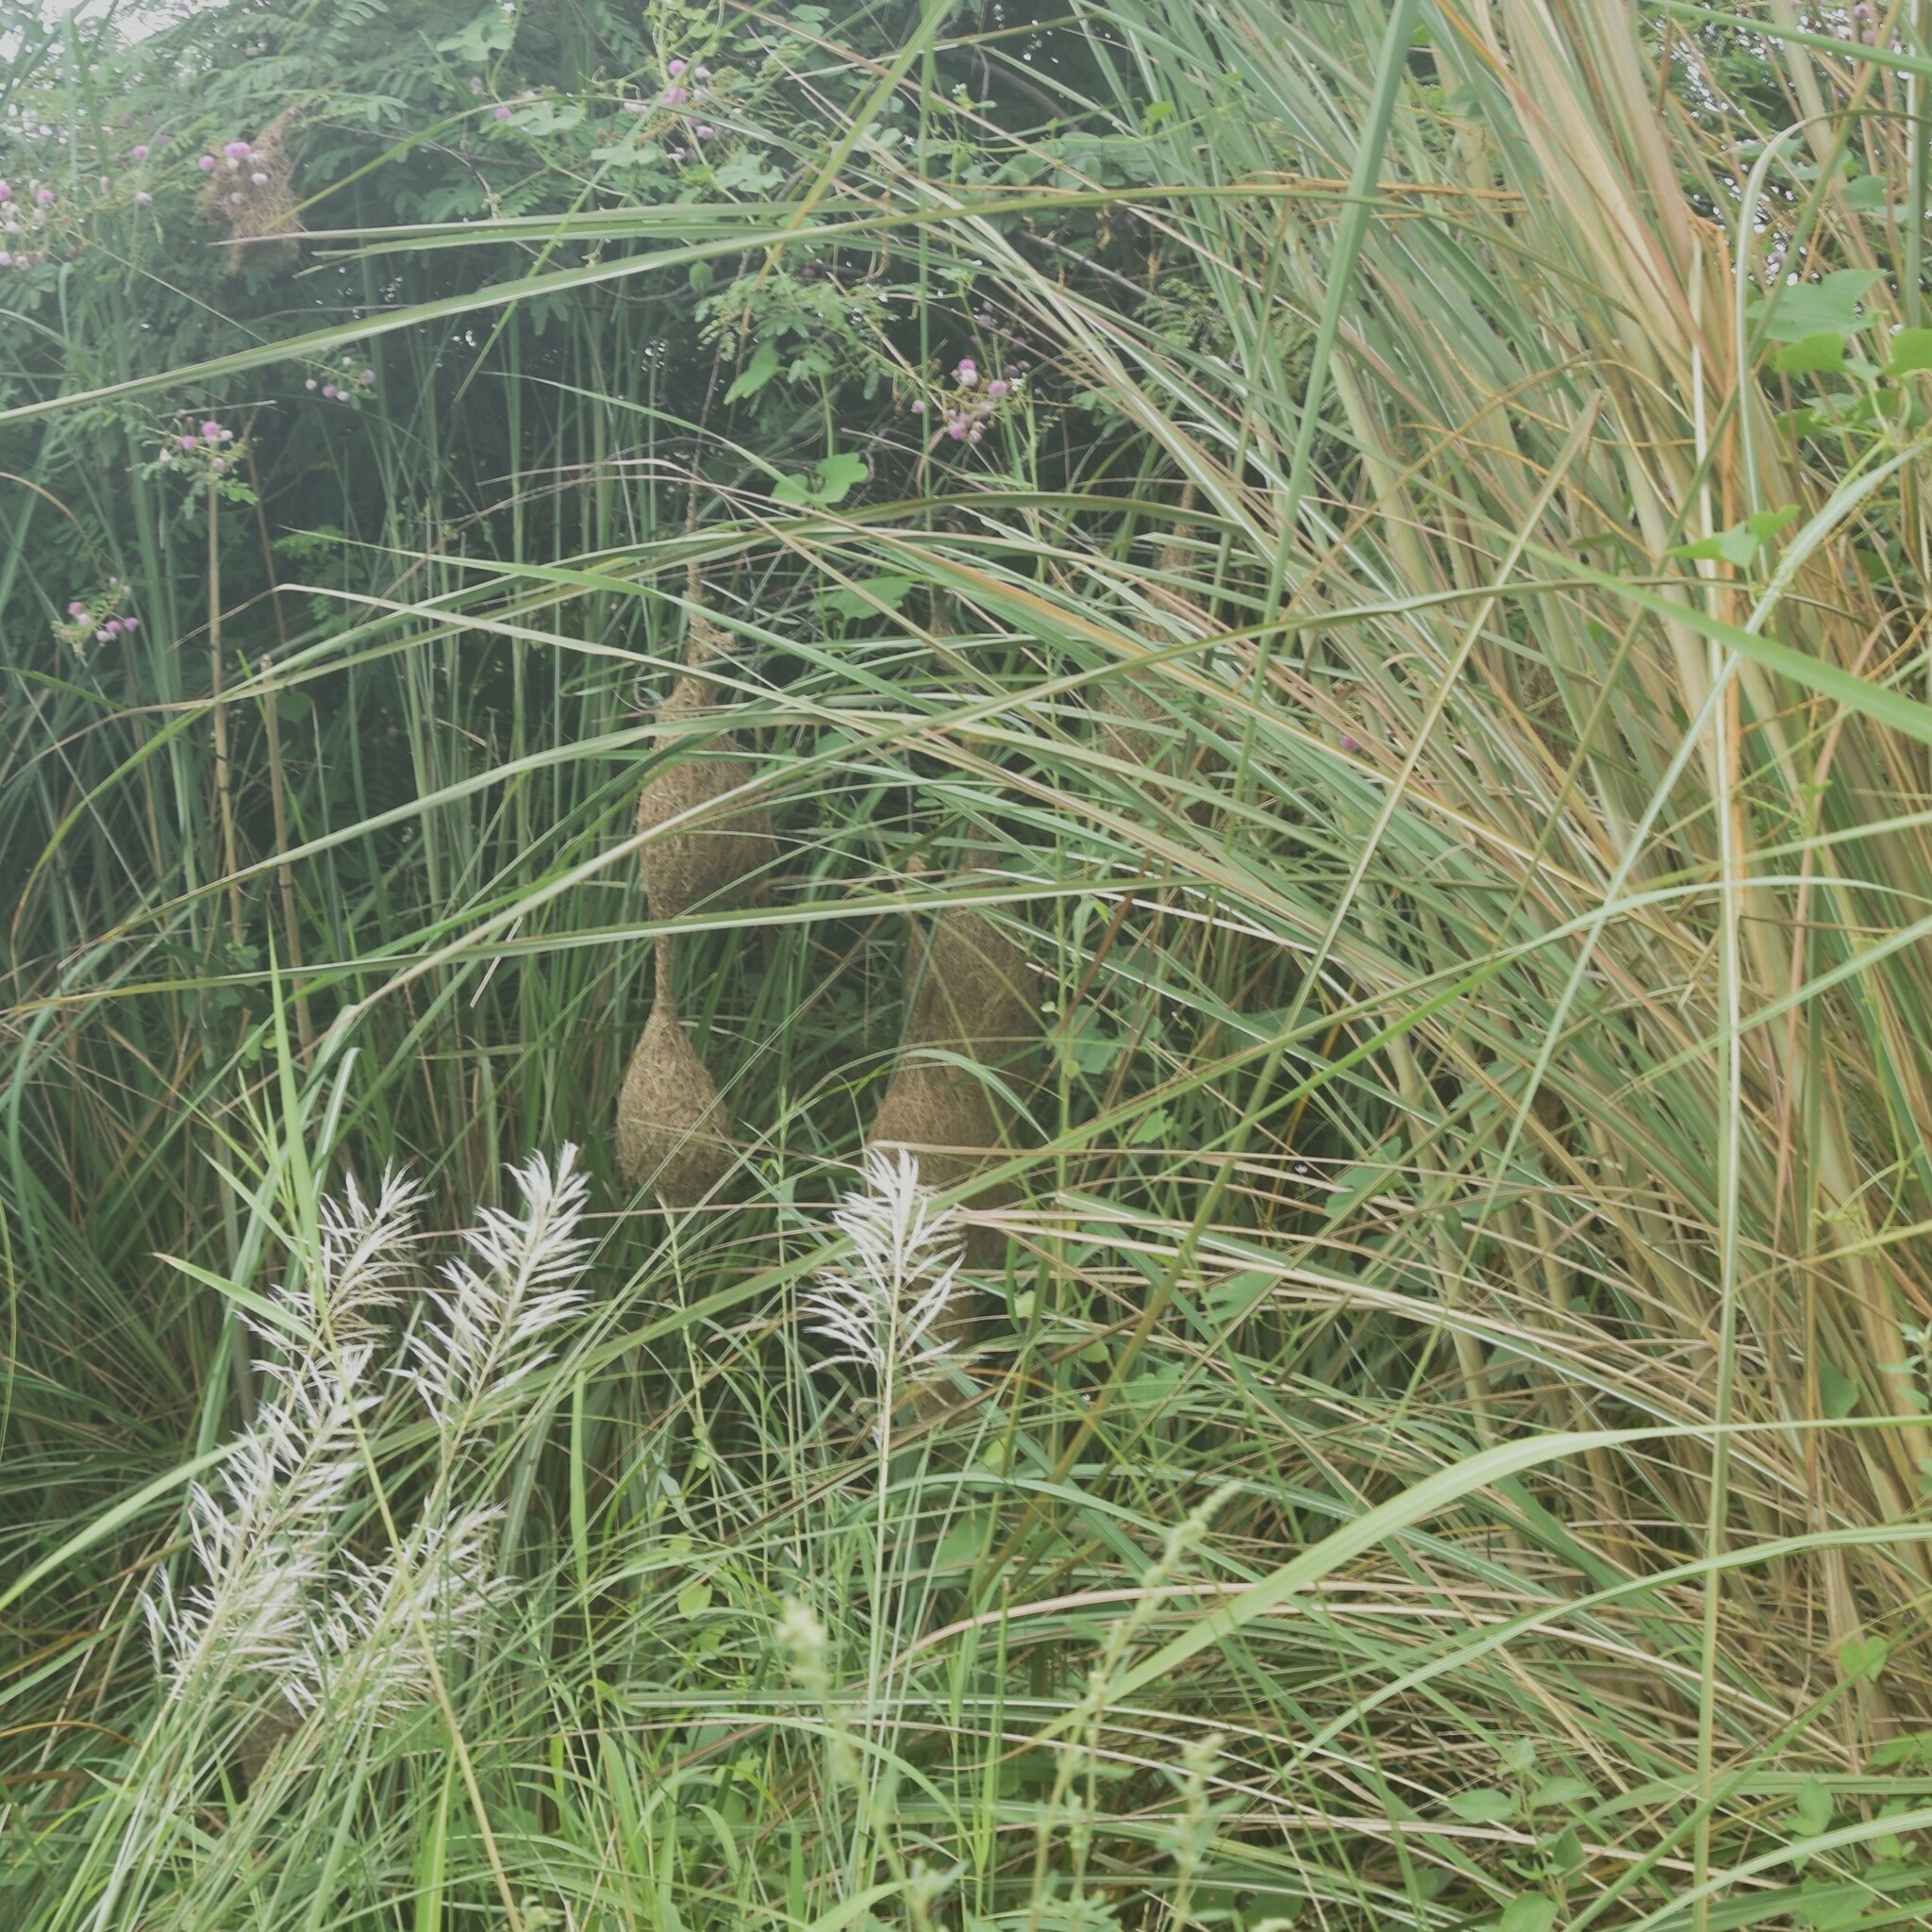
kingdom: Animalia
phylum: Chordata
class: Aves
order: Passeriformes
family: Ploceidae
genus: Ploceus
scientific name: Ploceus philippinus
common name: Baya weaver
